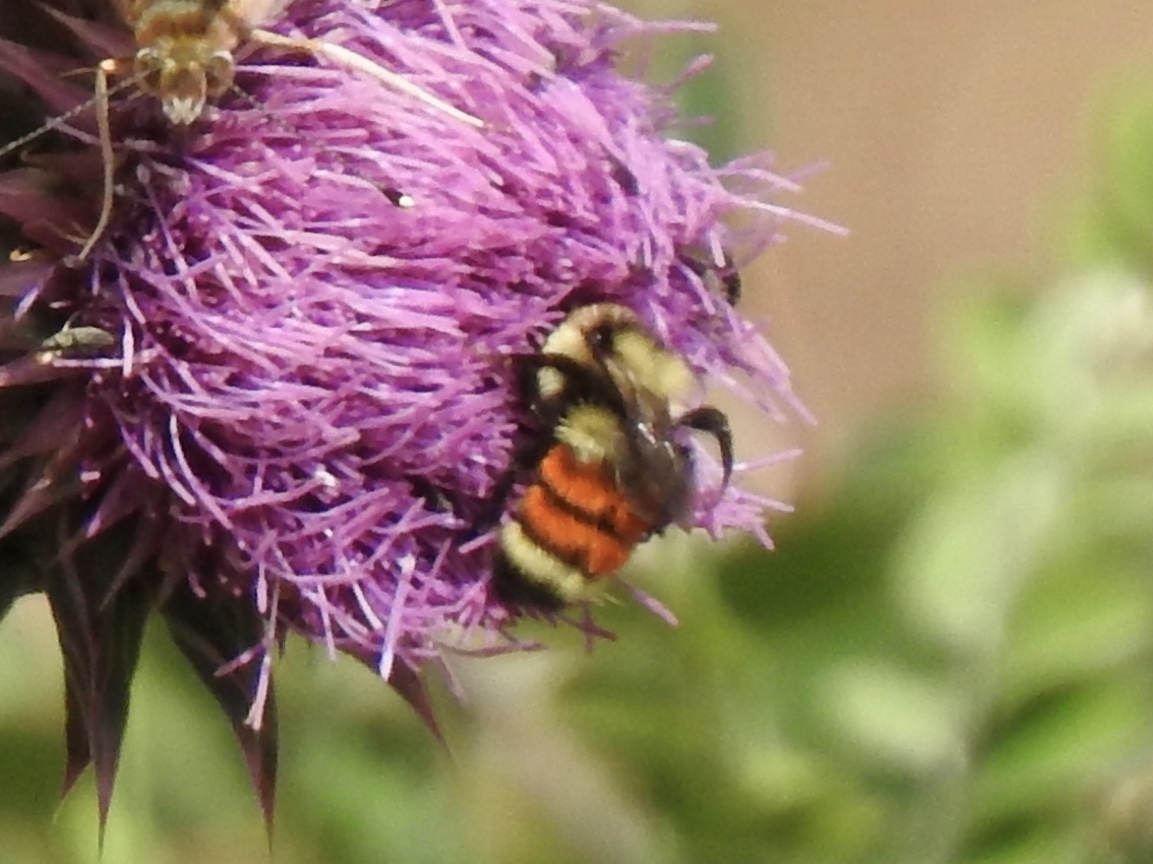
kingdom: Animalia
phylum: Arthropoda
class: Insecta
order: Hymenoptera
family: Apidae
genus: Bombus
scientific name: Bombus huntii
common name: Hunt bumble bee
